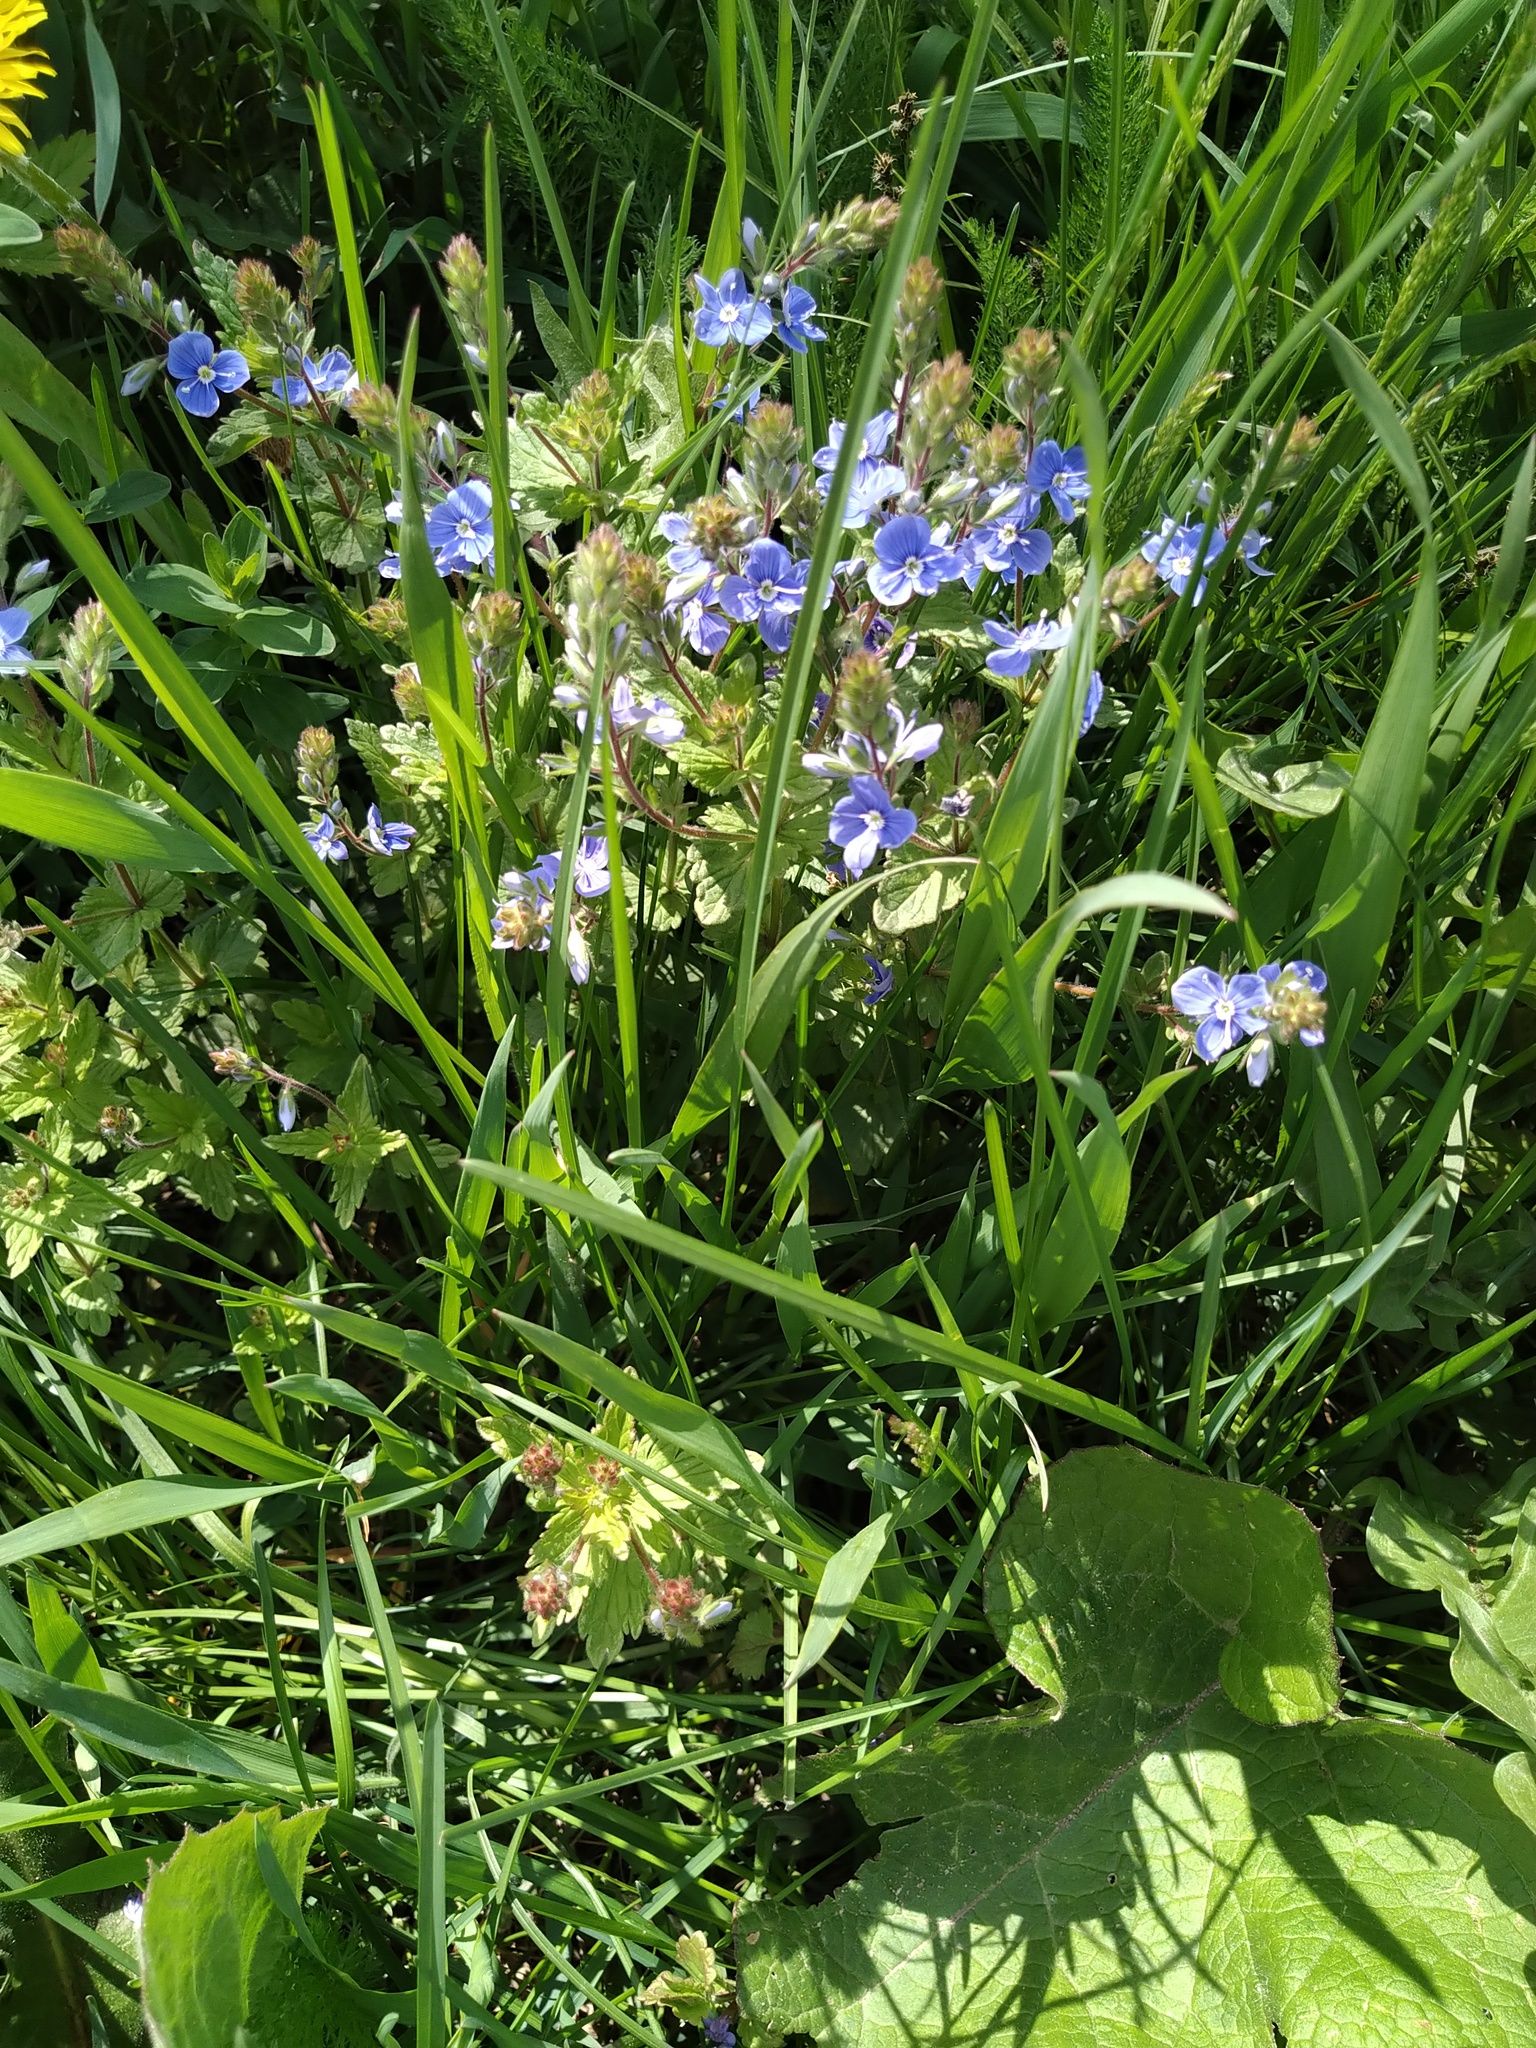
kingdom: Plantae
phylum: Tracheophyta
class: Magnoliopsida
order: Lamiales
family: Plantaginaceae
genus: Veronica
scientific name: Veronica chamaedrys
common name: Germander speedwell
